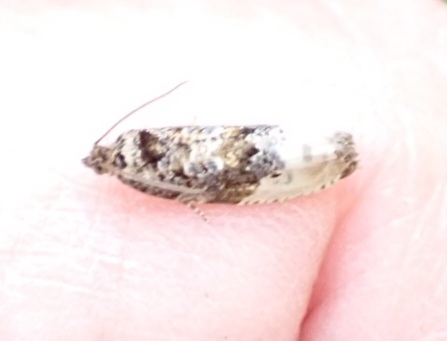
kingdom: Animalia
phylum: Arthropoda
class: Insecta
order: Lepidoptera
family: Tortricidae
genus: Hedya
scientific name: Hedya nubiferana
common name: Marbled orchard tortrix
